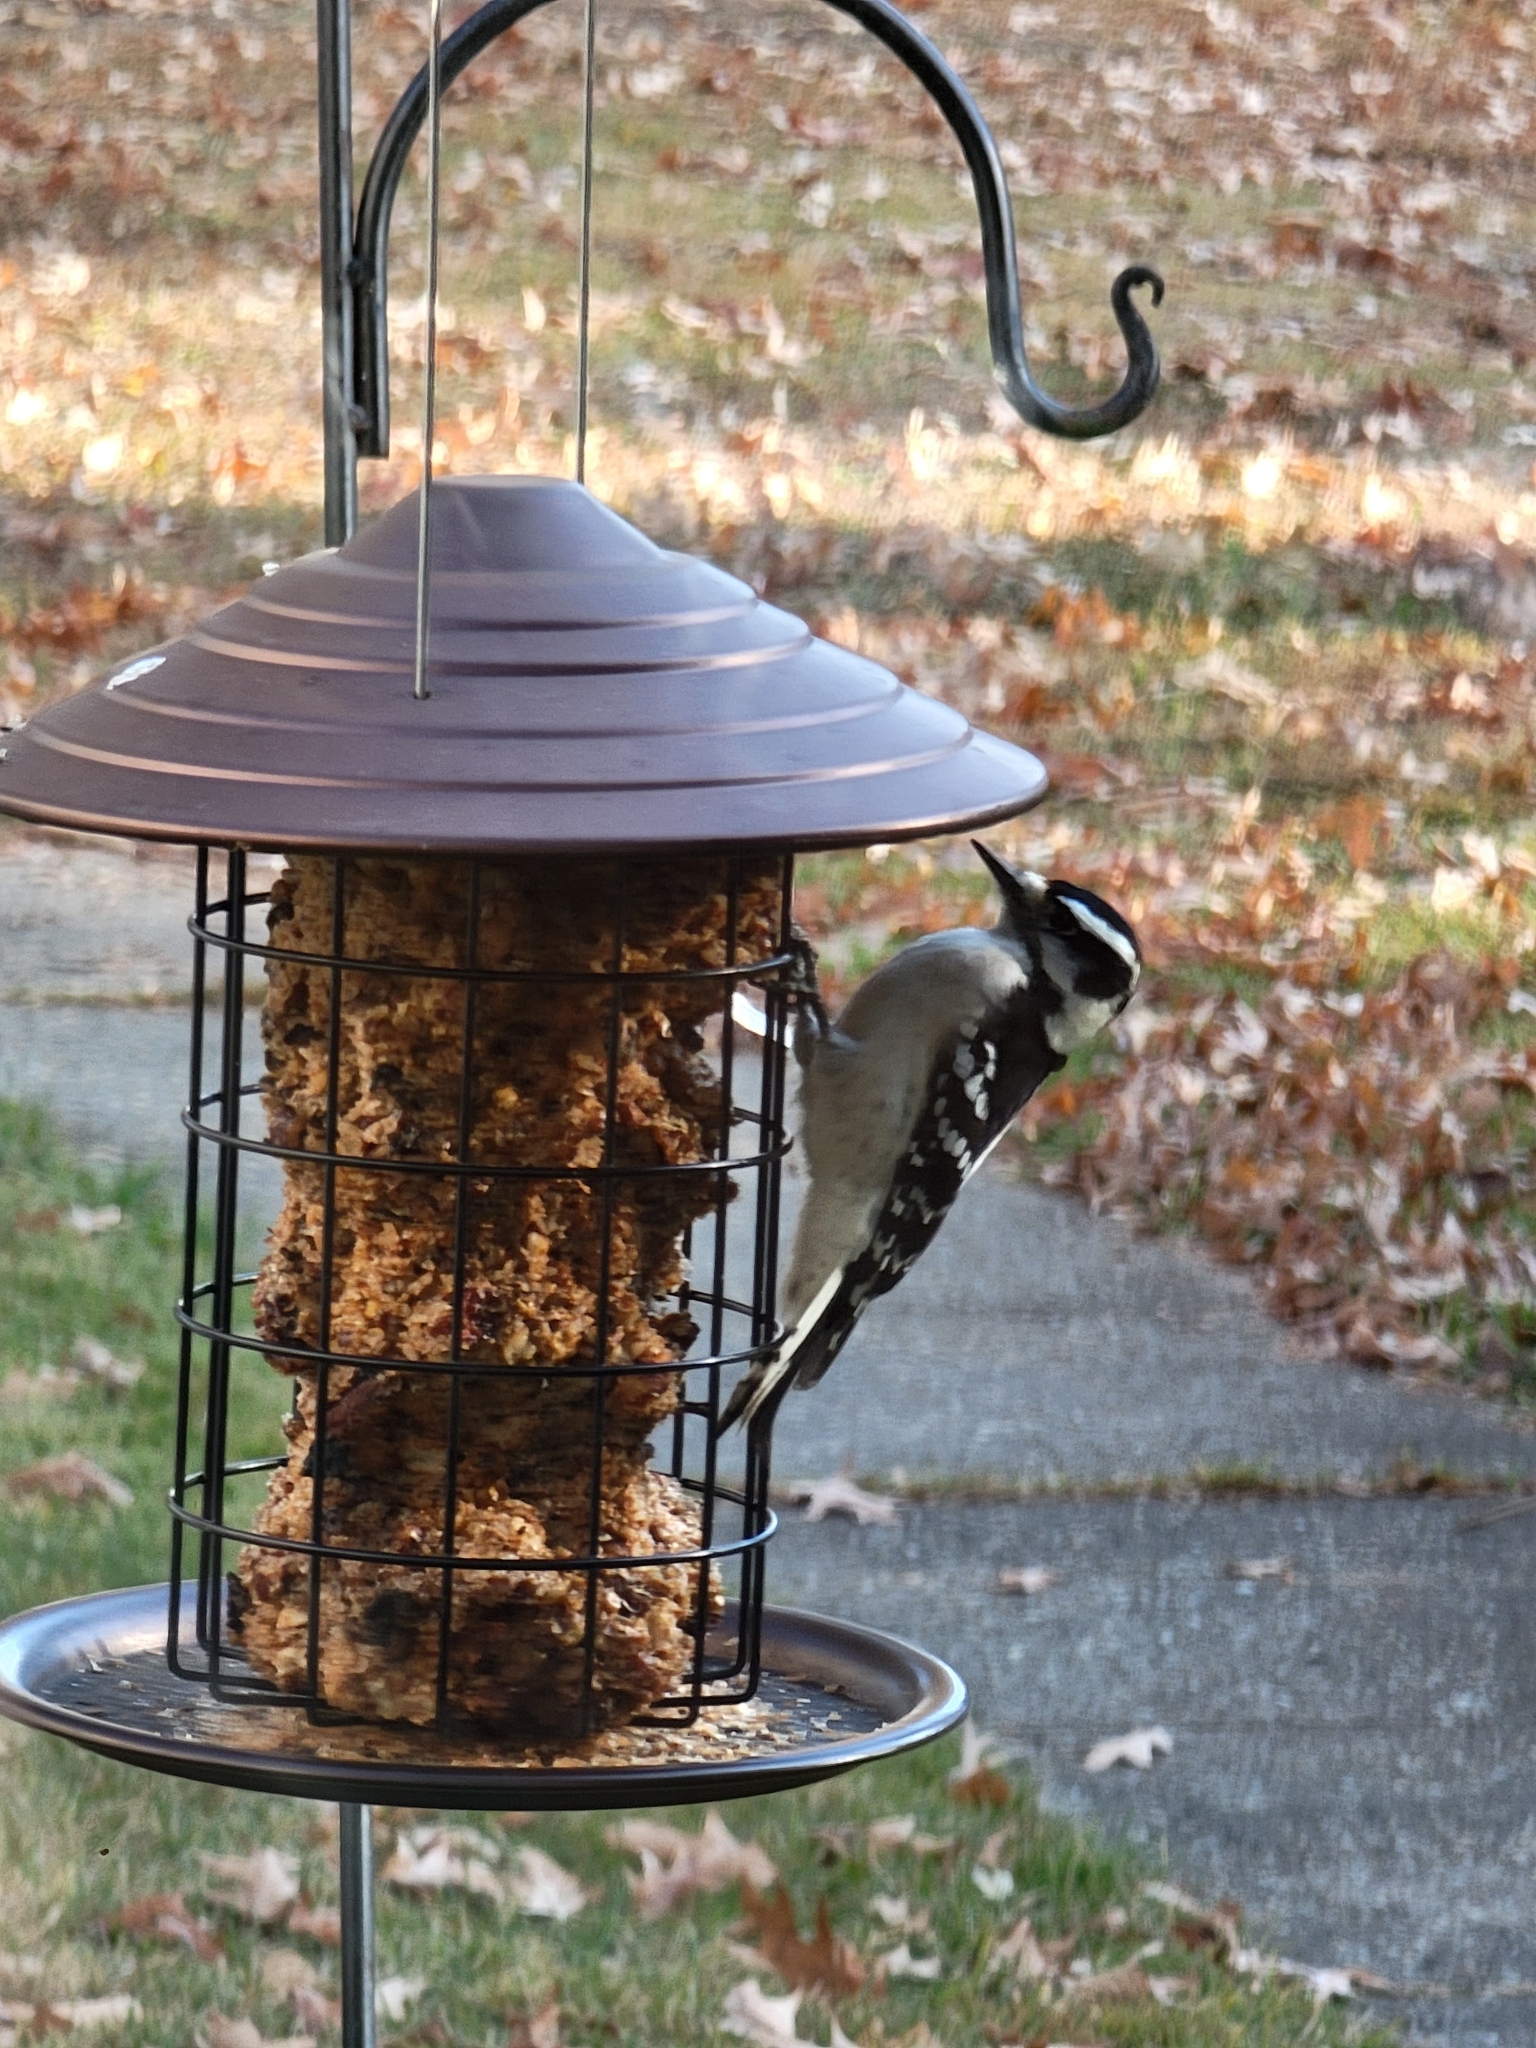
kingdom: Animalia
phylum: Chordata
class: Aves
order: Piciformes
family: Picidae
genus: Dryobates
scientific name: Dryobates pubescens
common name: Downy woodpecker
